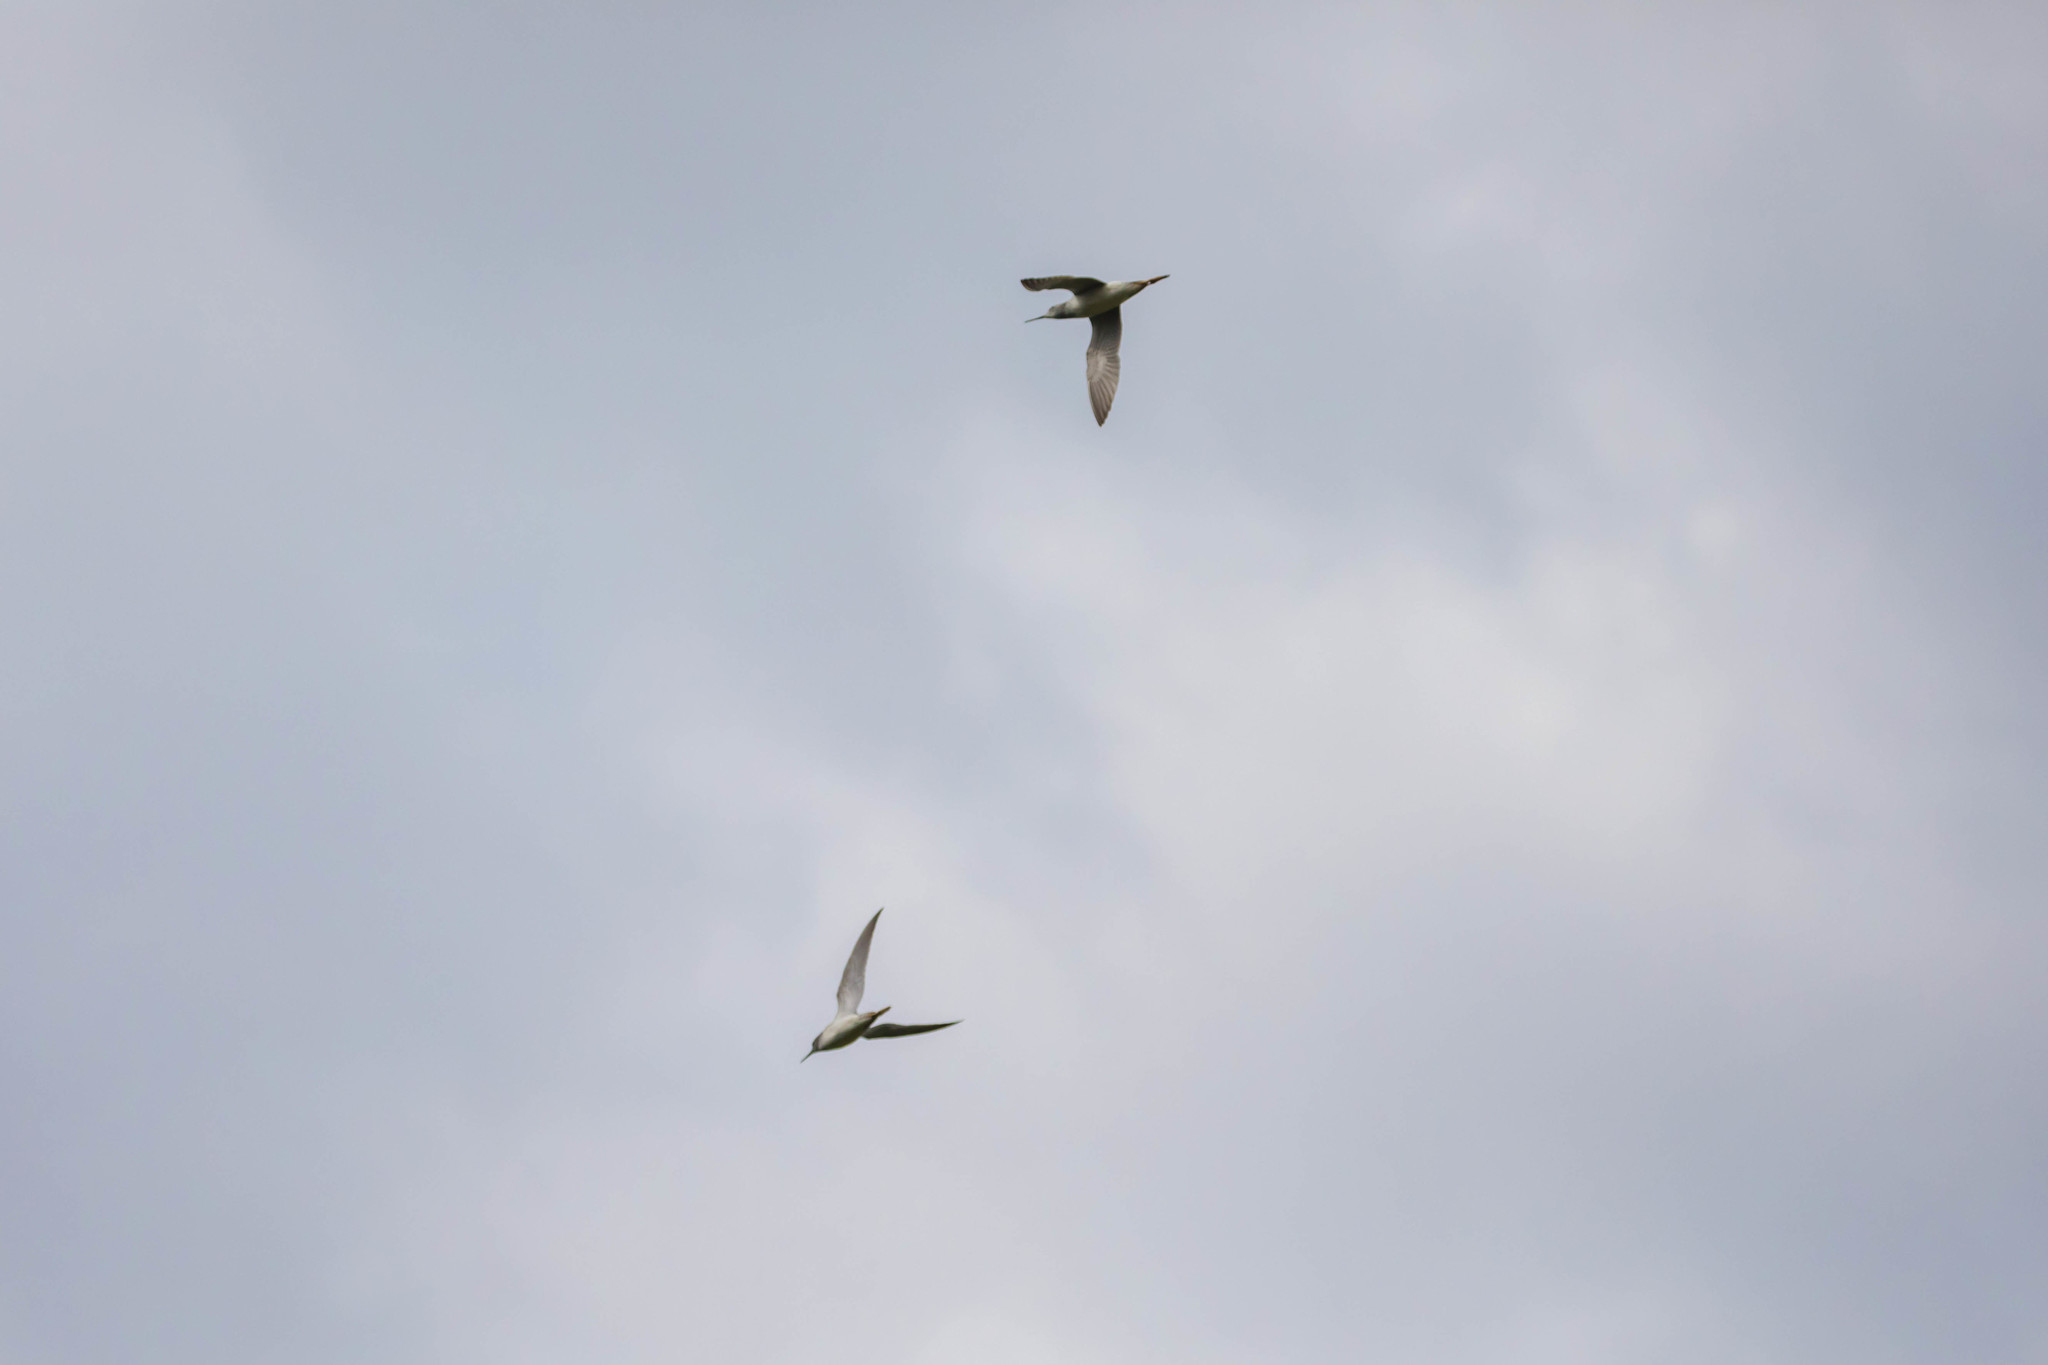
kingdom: Animalia
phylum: Chordata
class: Aves
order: Charadriiformes
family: Scolopacidae
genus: Tringa
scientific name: Tringa flavipes
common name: Lesser yellowlegs
